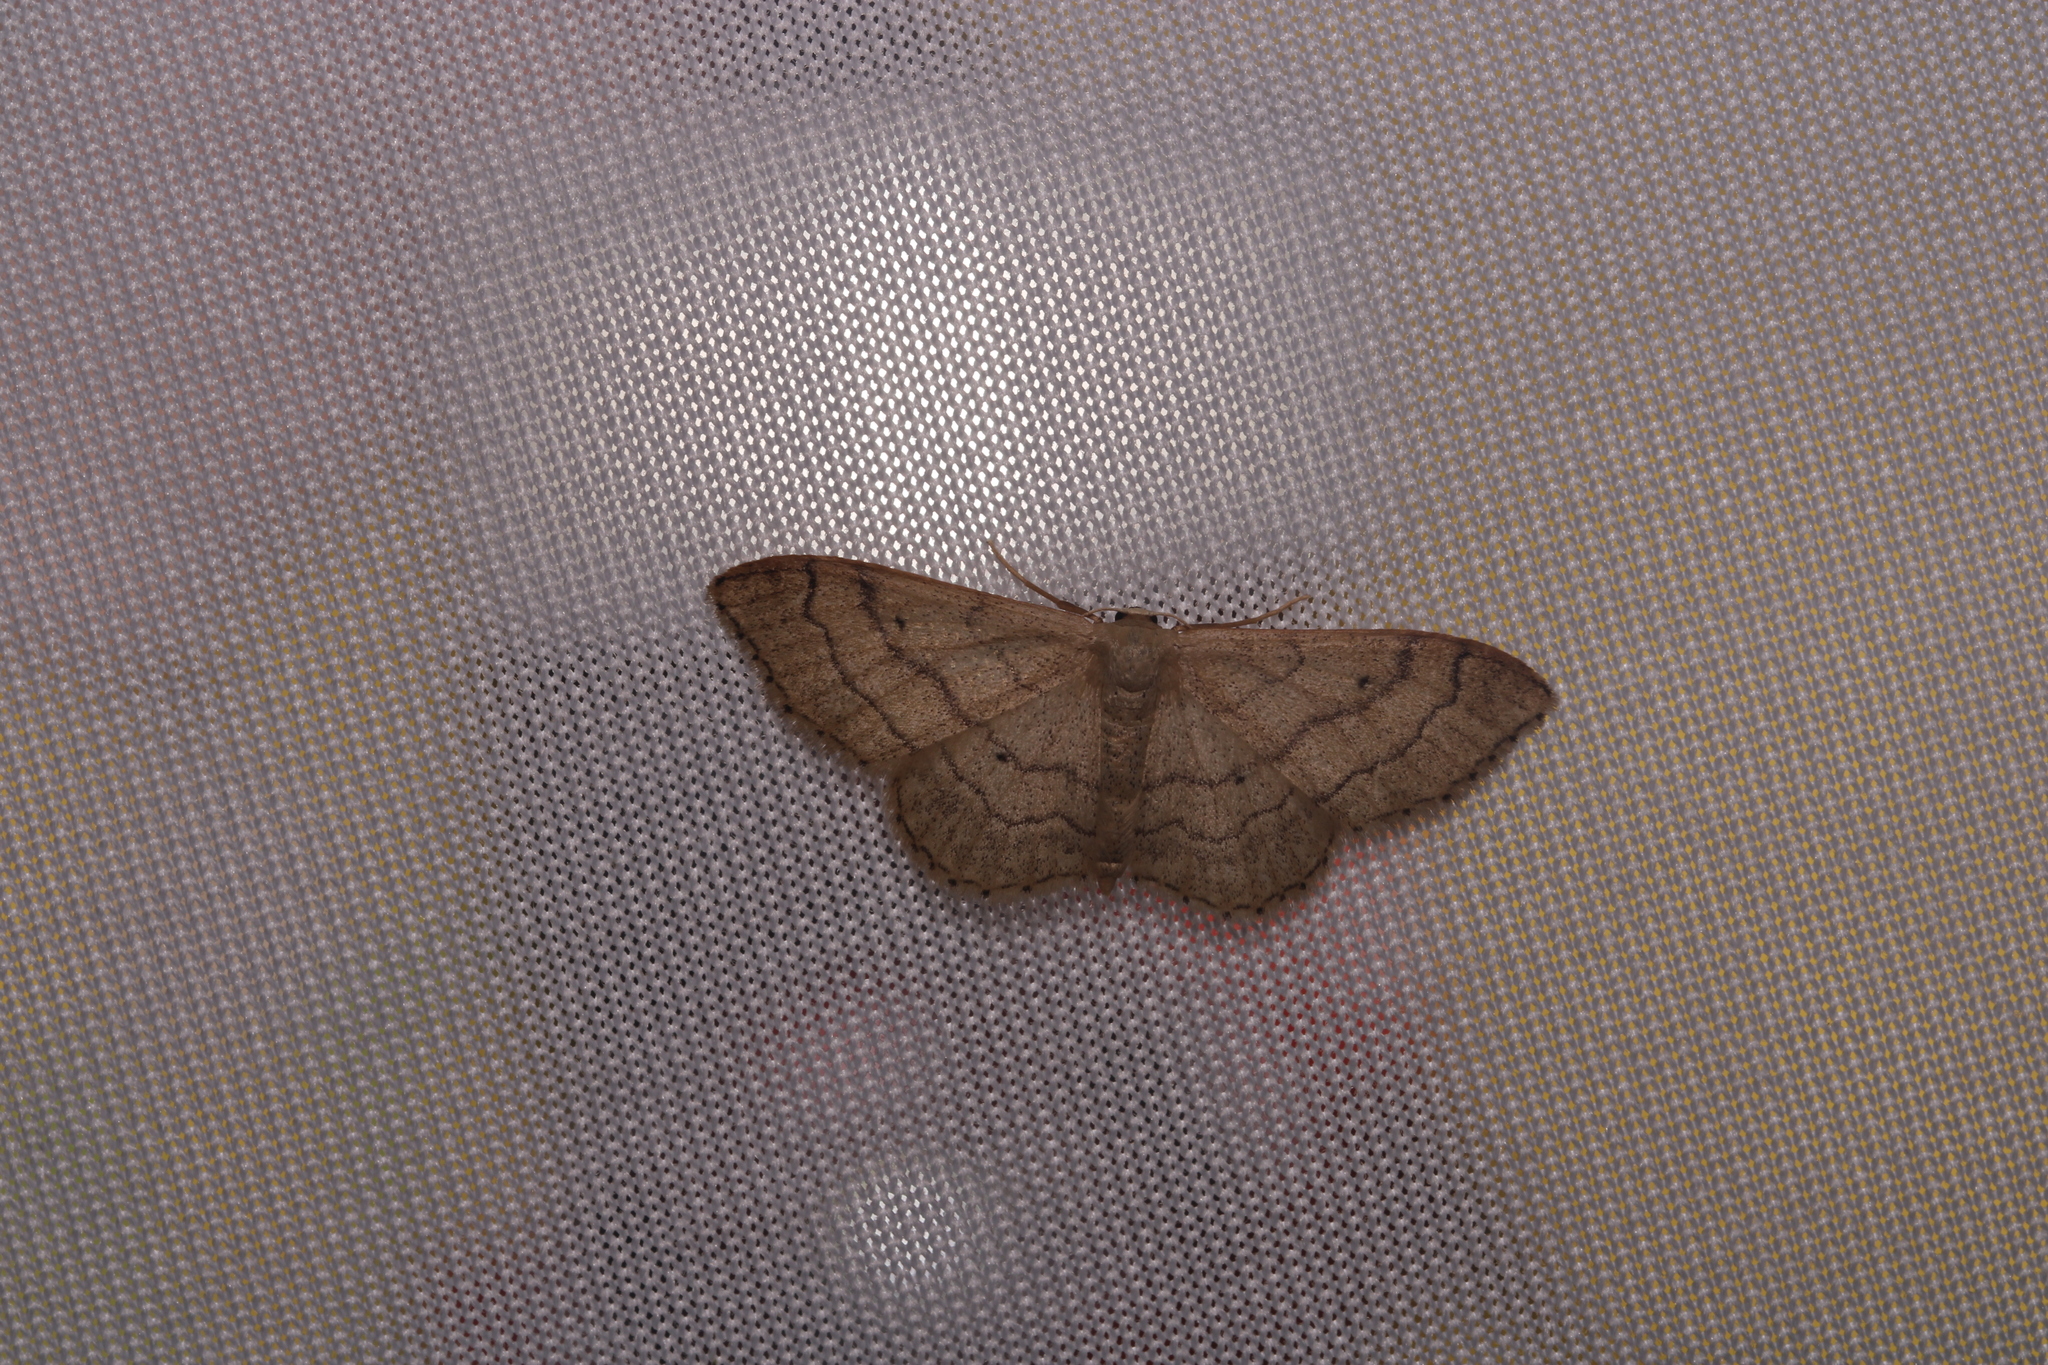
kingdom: Animalia
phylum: Arthropoda
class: Insecta
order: Lepidoptera
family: Geometridae
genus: Idaea
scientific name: Idaea aversata
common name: Riband wave
